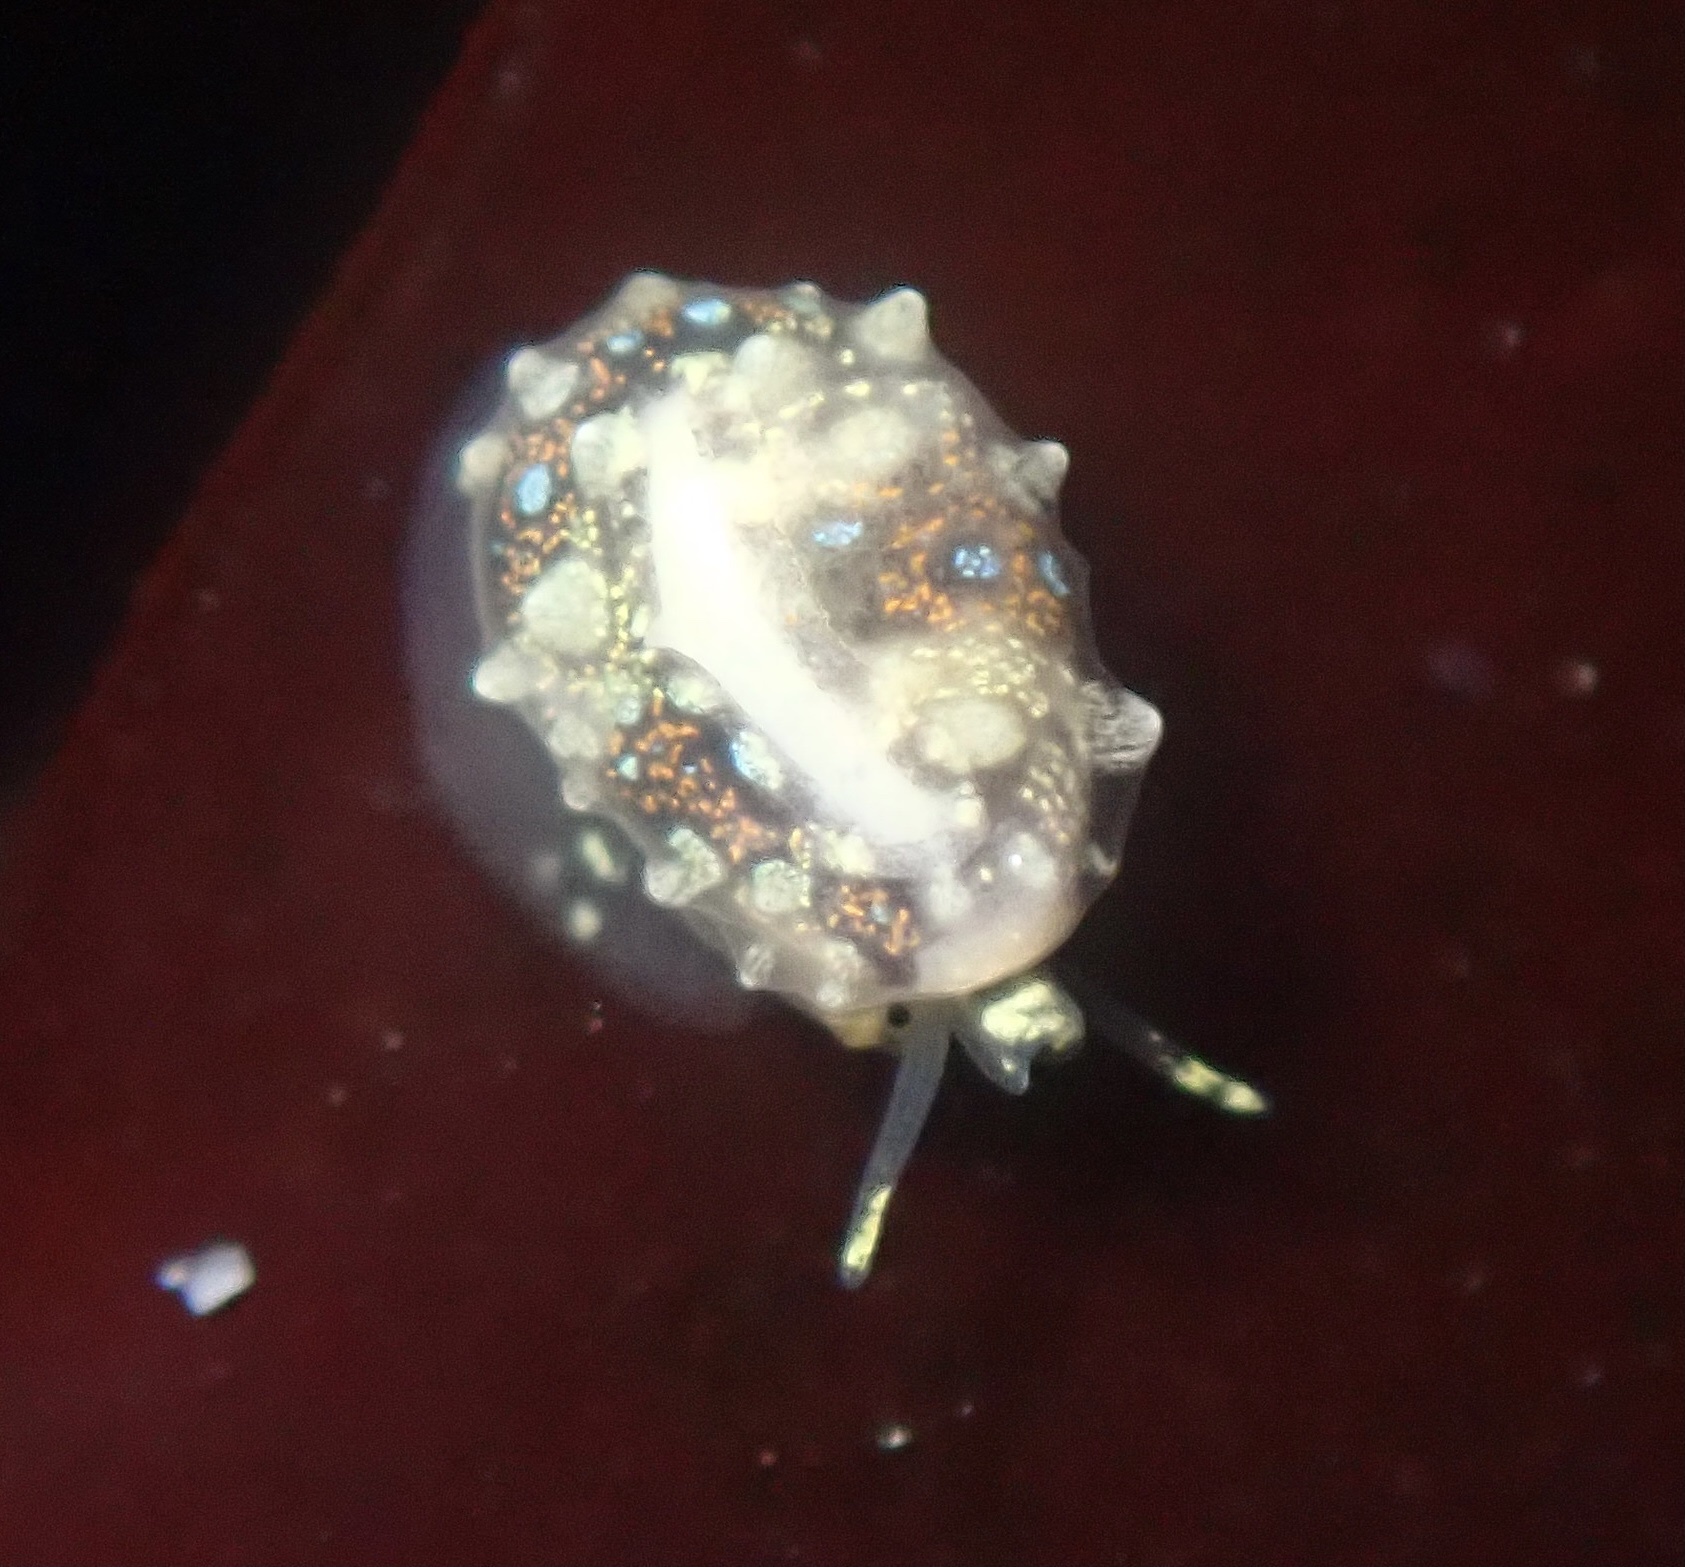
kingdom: Animalia
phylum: Mollusca
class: Gastropoda
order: Neogastropoda
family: Granulinidae
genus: Granulina
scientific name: Granulina margaritula
